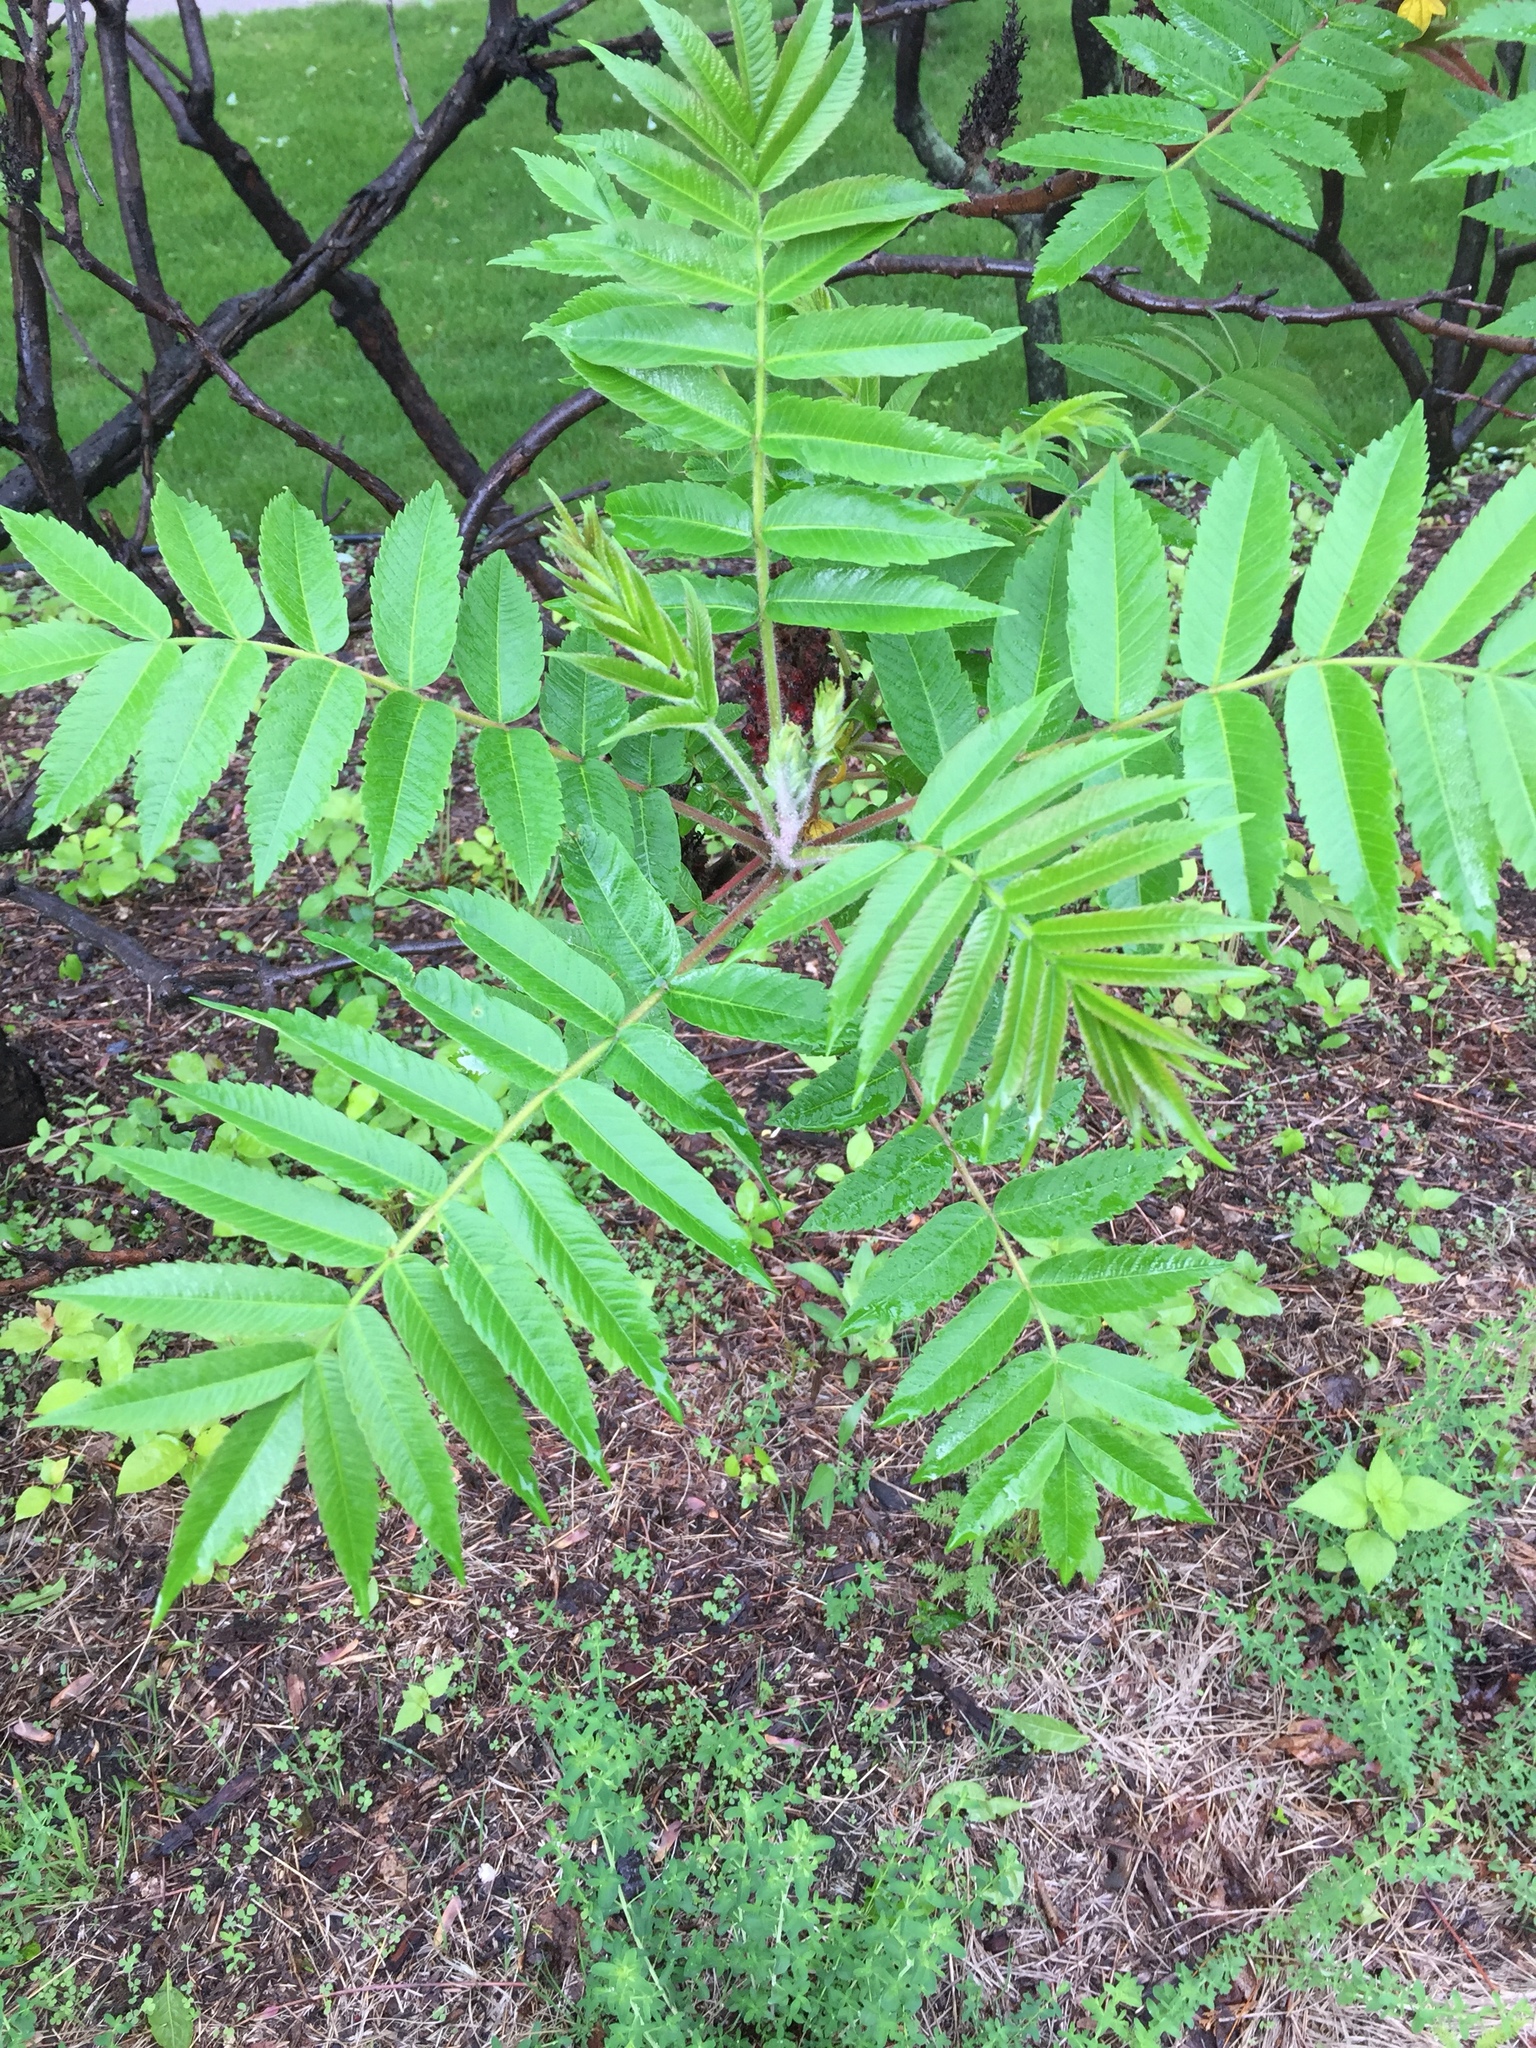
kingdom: Plantae
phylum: Tracheophyta
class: Magnoliopsida
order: Sapindales
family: Anacardiaceae
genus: Rhus
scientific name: Rhus typhina
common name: Staghorn sumac
